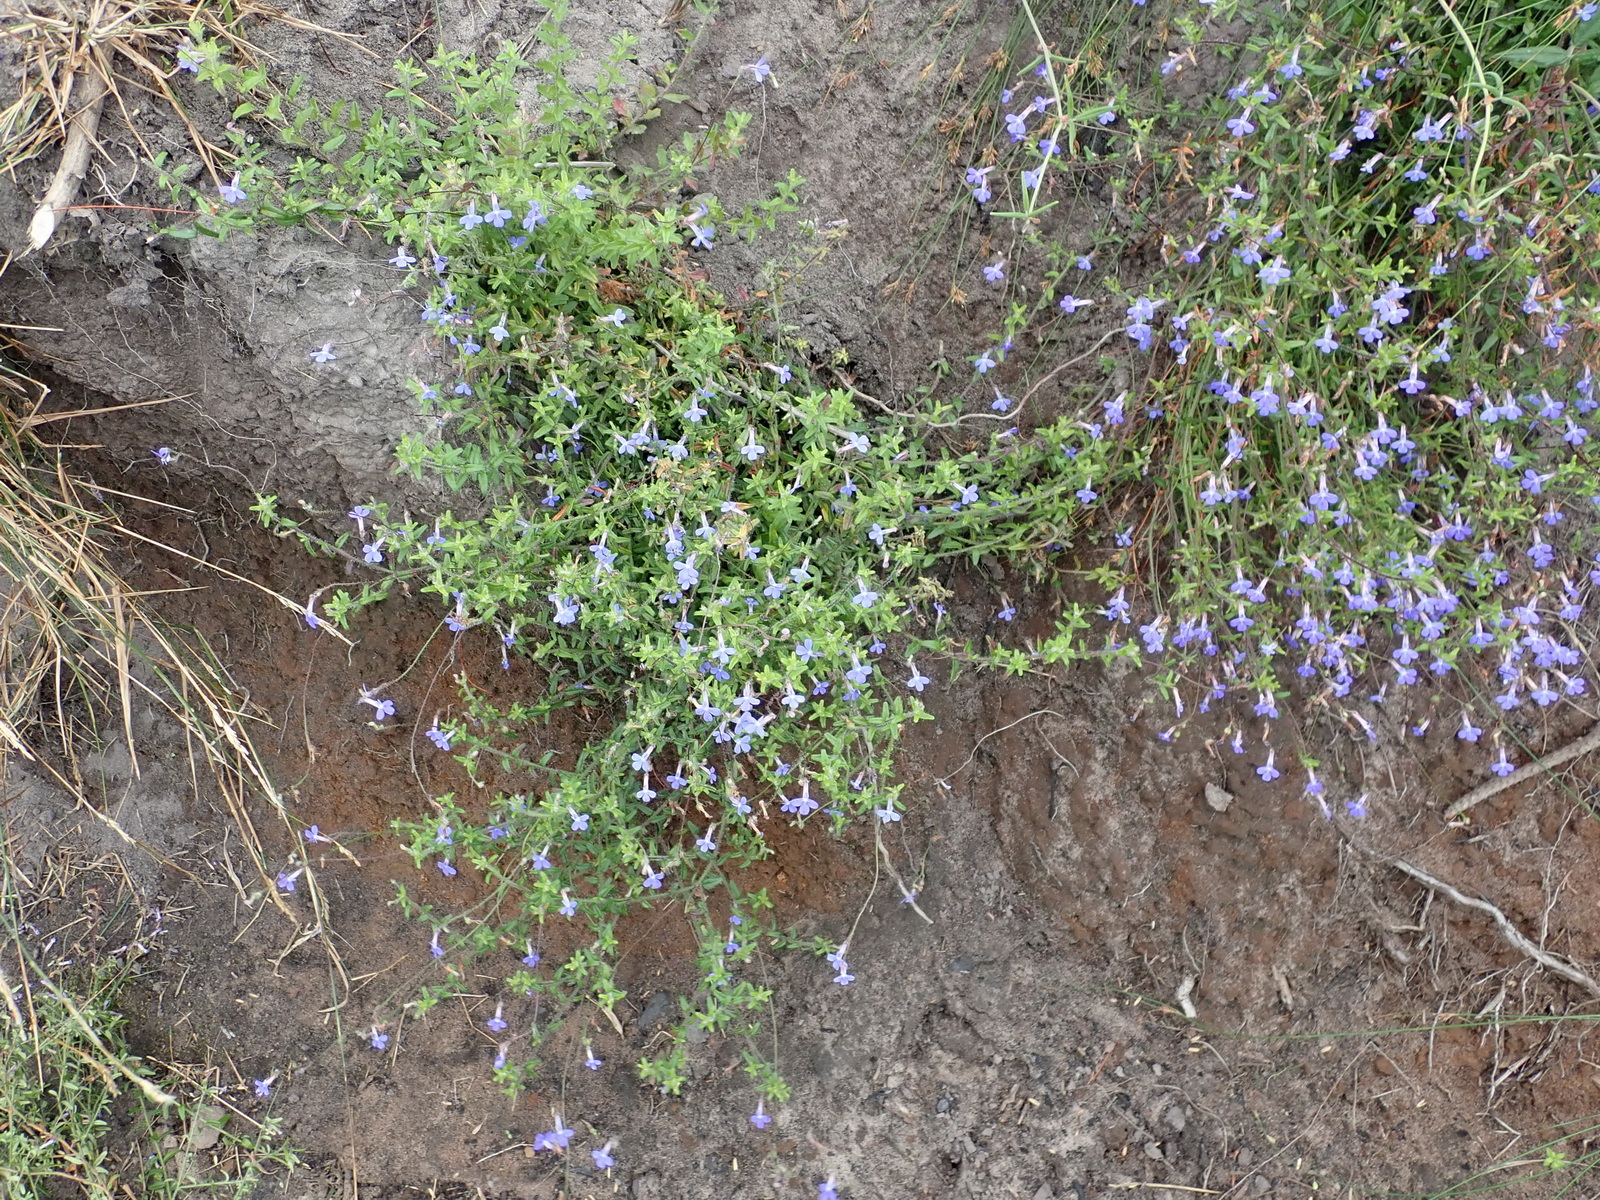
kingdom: Plantae
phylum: Tracheophyta
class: Magnoliopsida
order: Asterales
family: Campanulaceae
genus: Lobelia
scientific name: Lobelia neglecta
